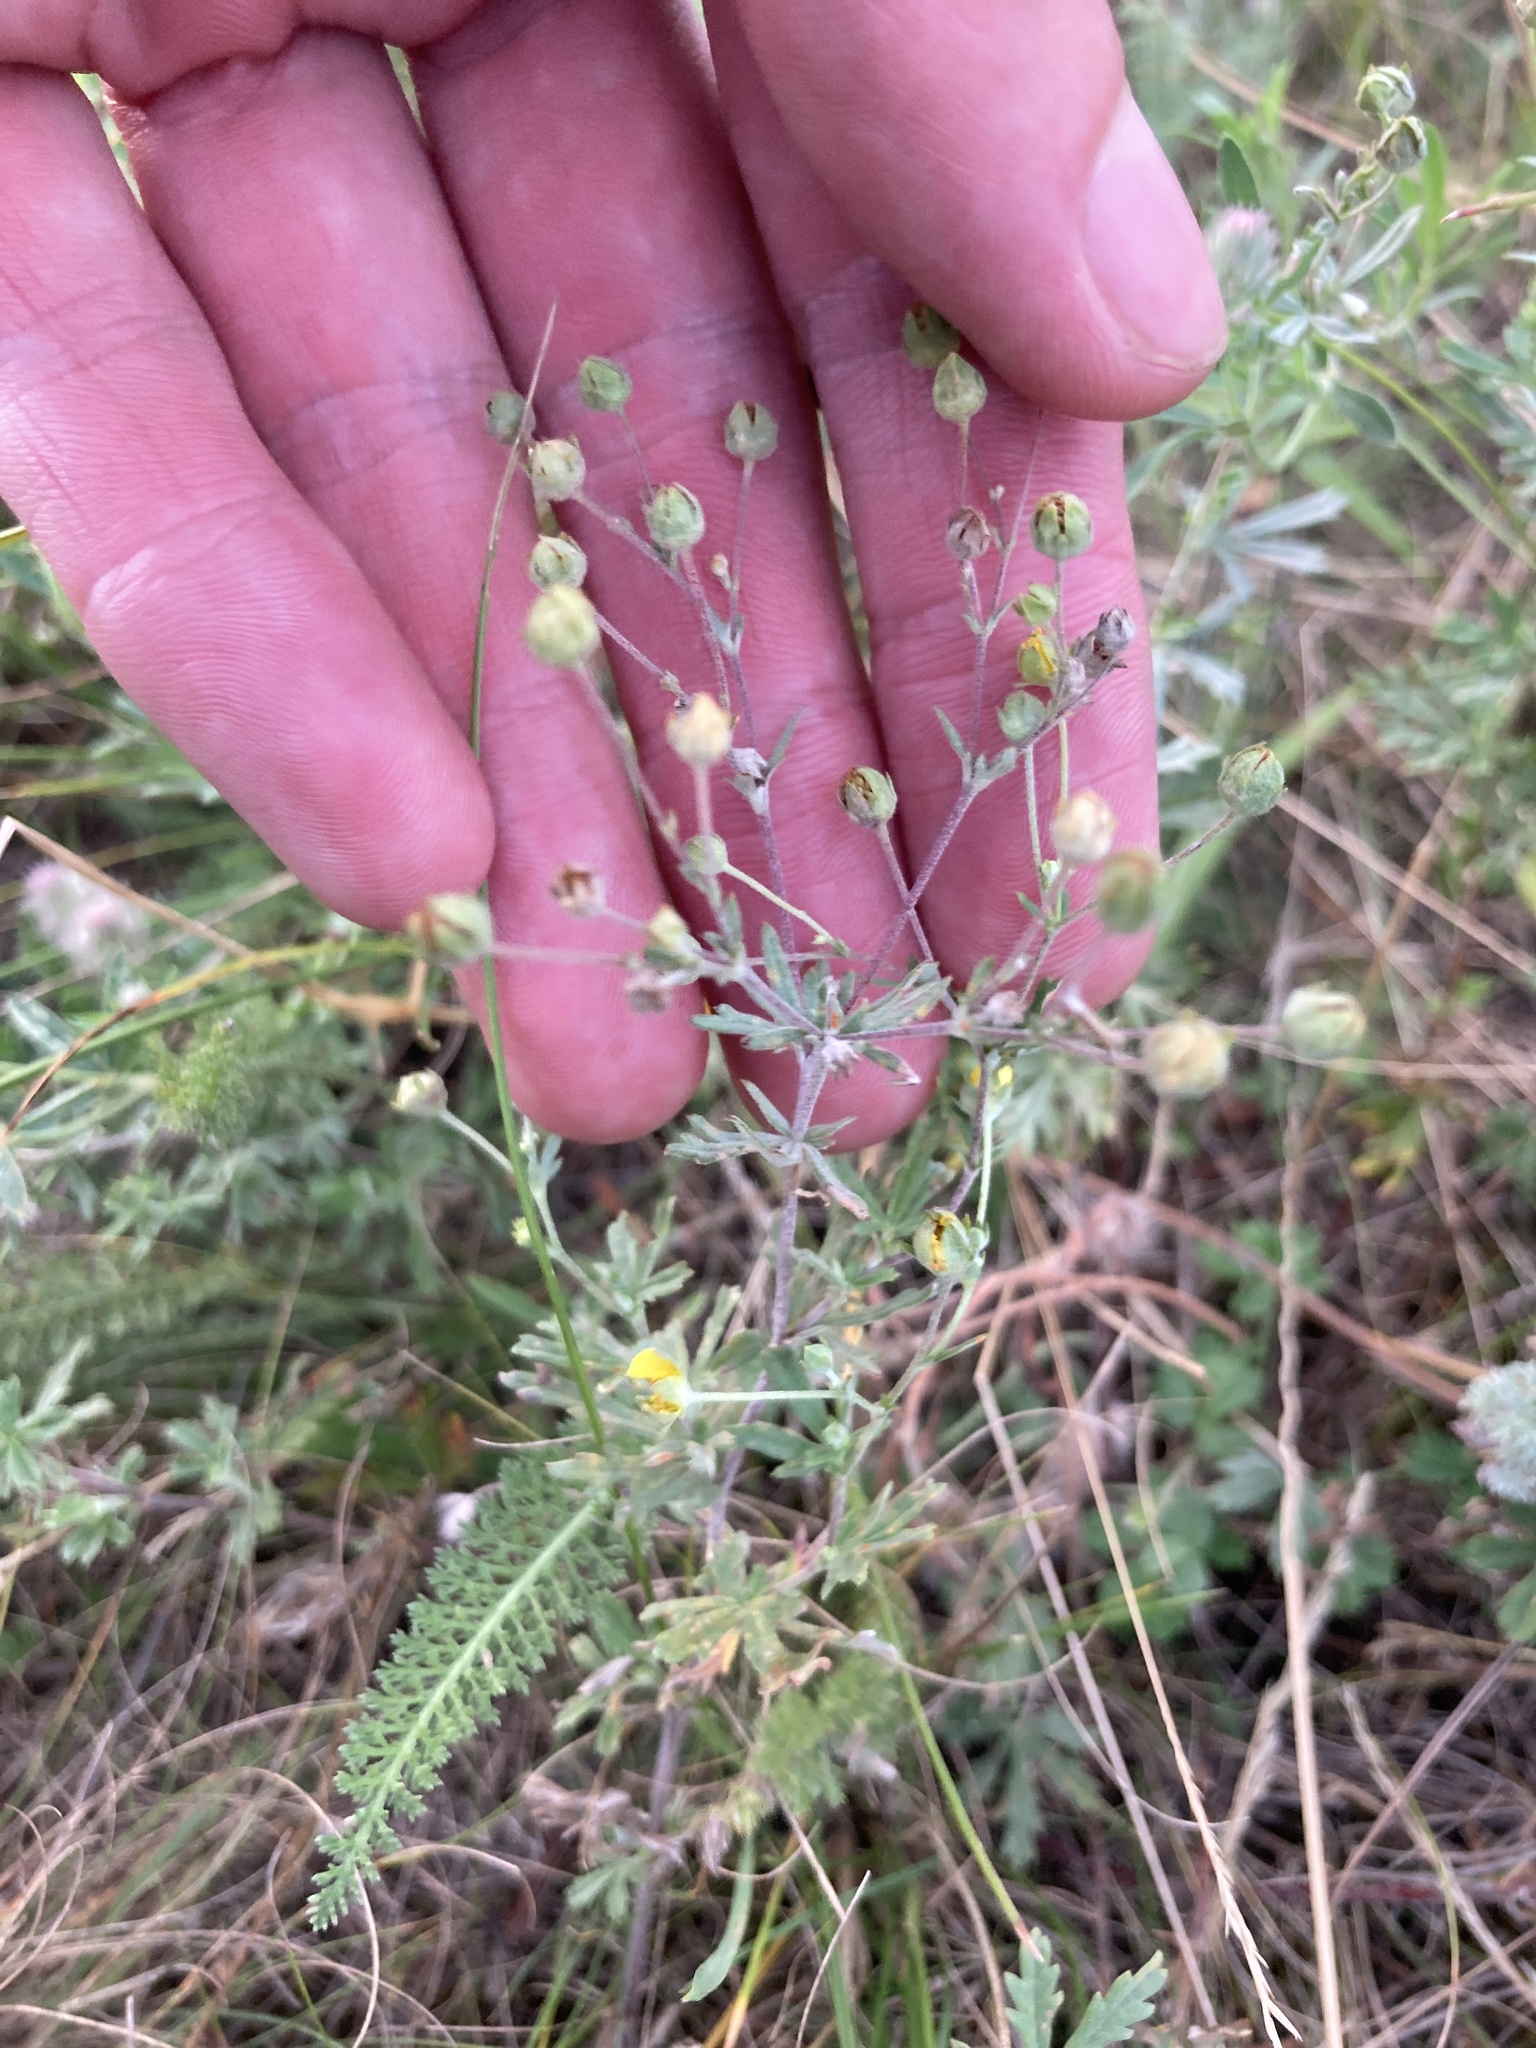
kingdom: Plantae
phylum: Tracheophyta
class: Magnoliopsida
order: Rosales
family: Rosaceae
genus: Potentilla
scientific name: Potentilla argentea
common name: Hoary cinquefoil
